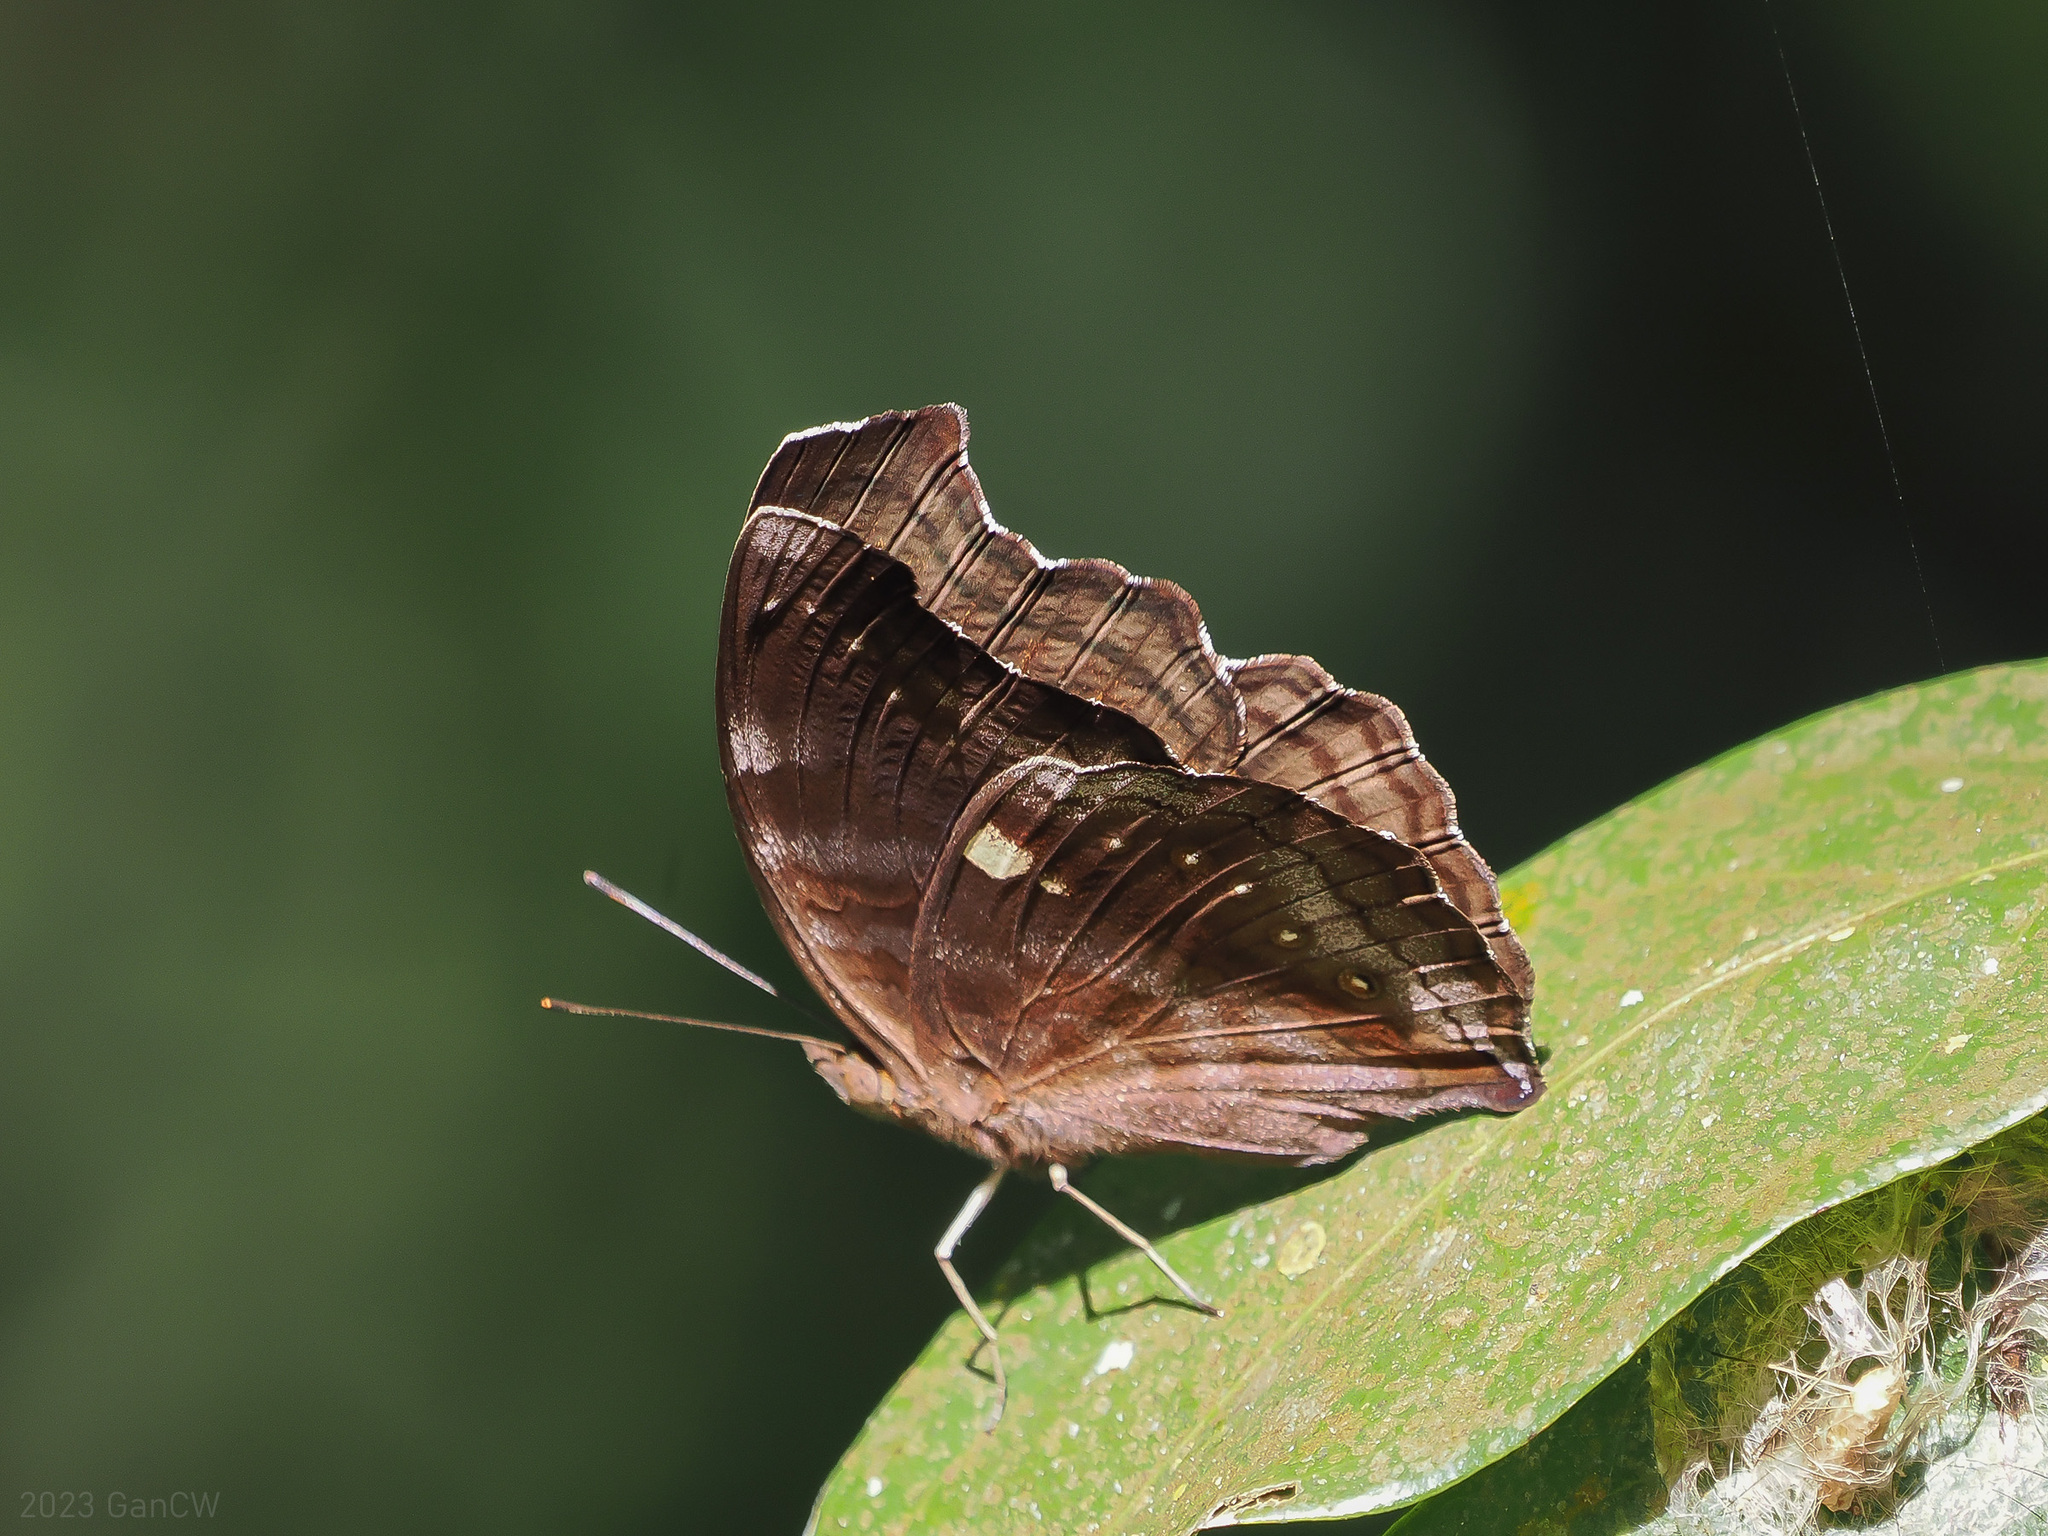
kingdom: Animalia
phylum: Arthropoda
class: Insecta
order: Lepidoptera
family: Nymphalidae
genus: Junonia
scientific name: Junonia
